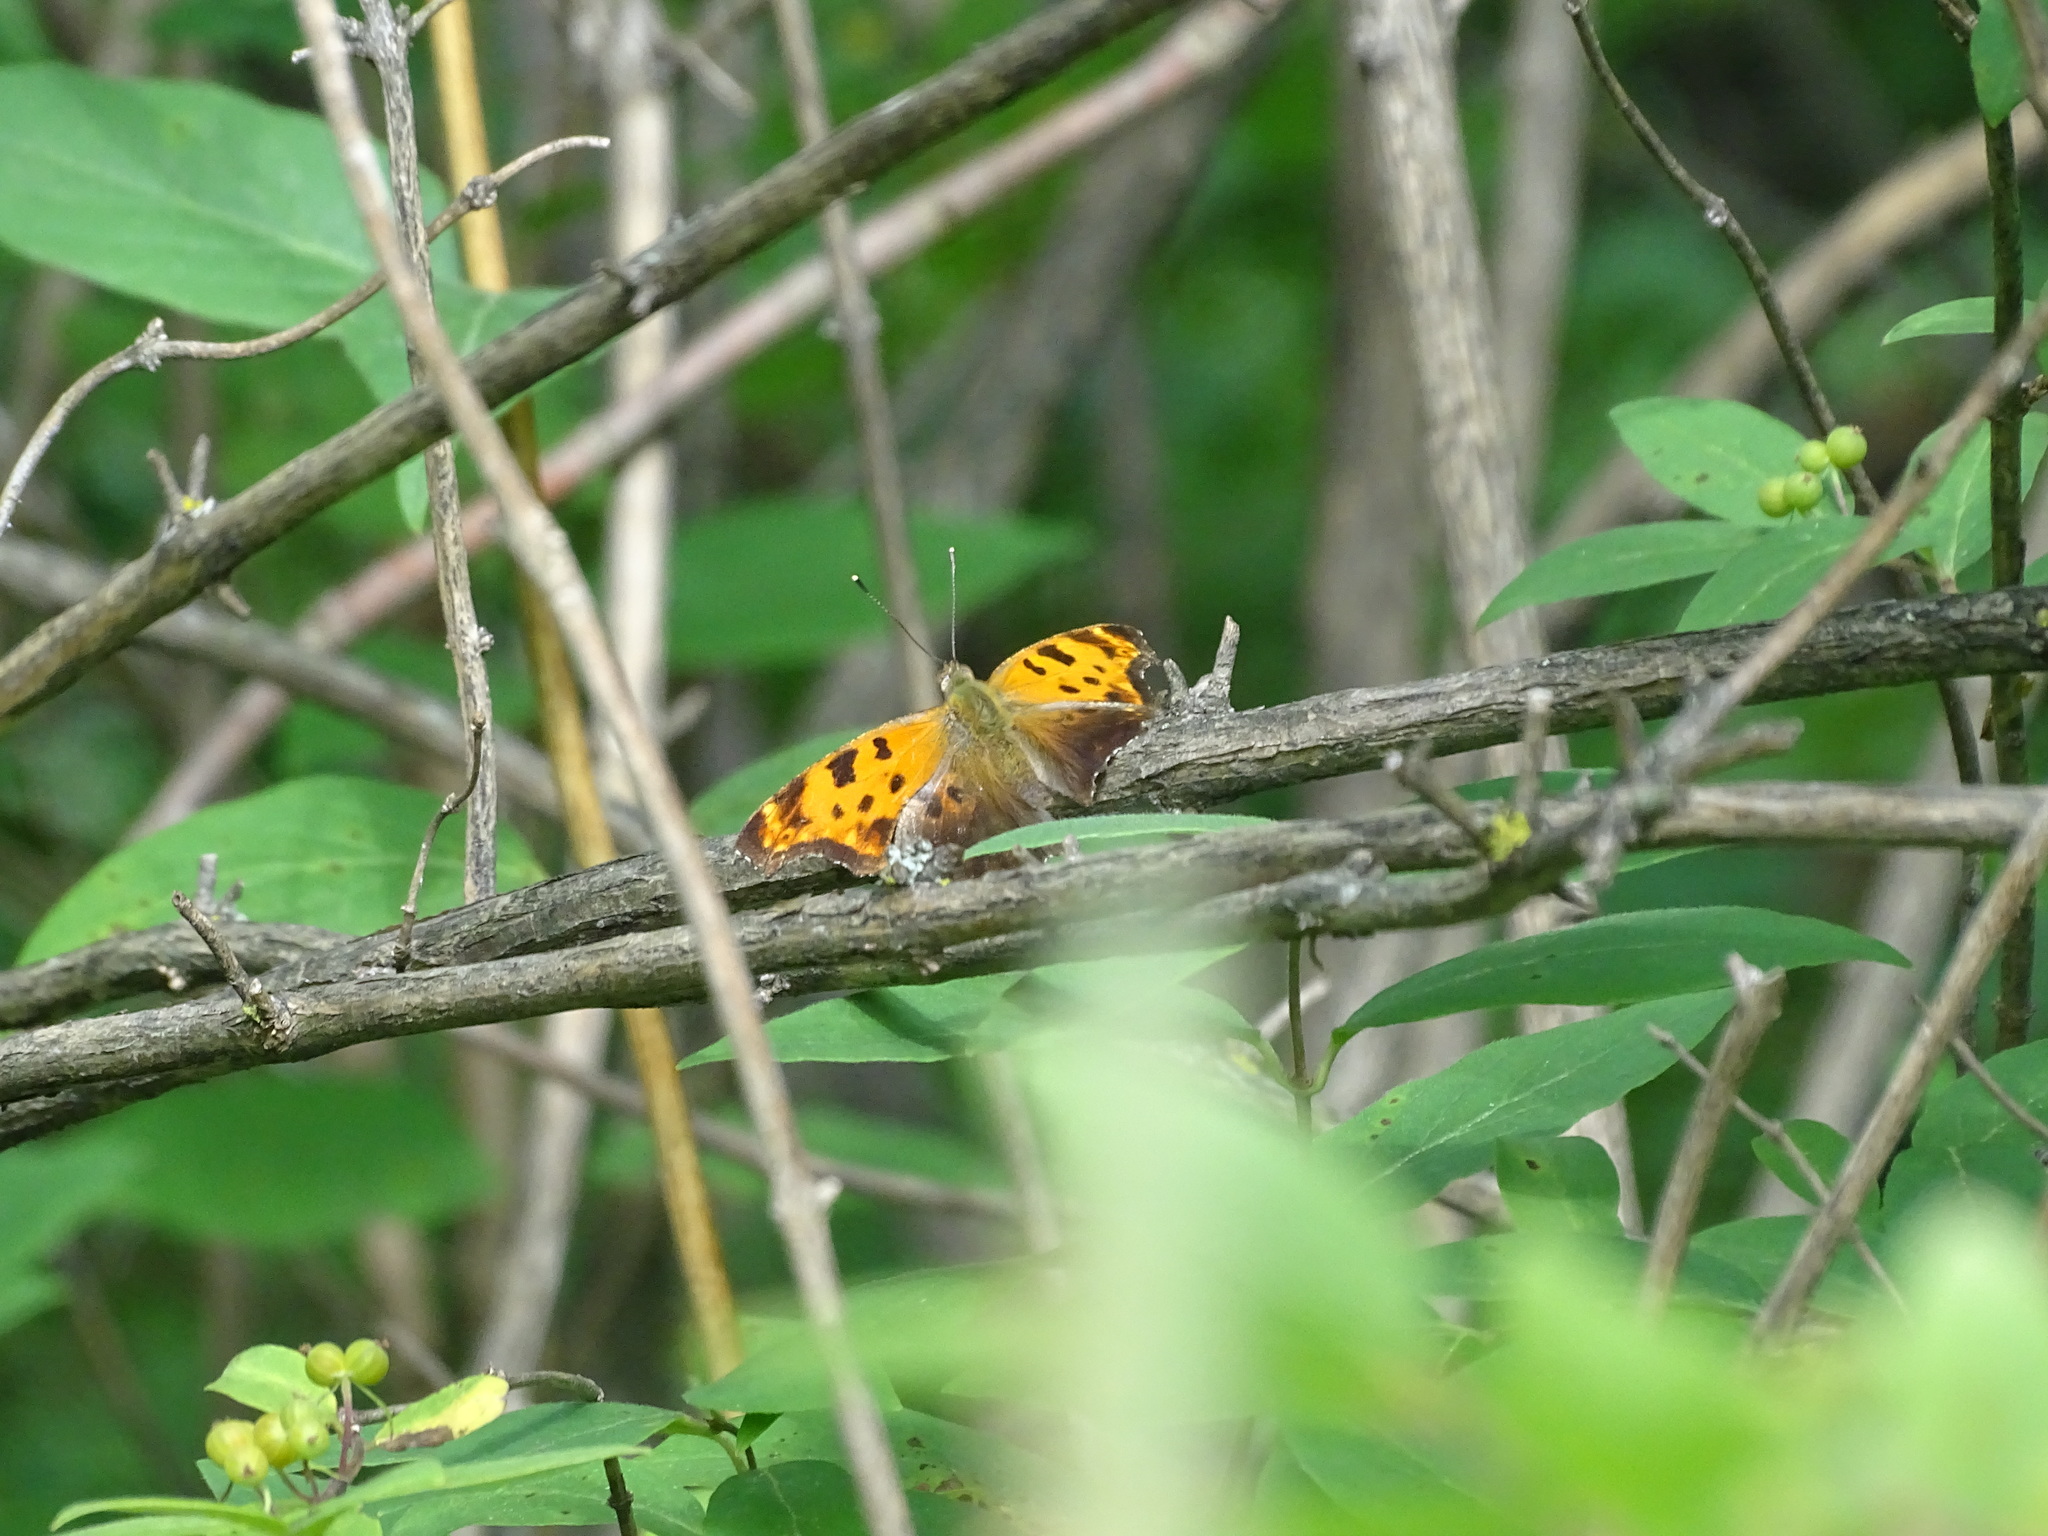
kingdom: Animalia
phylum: Arthropoda
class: Insecta
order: Lepidoptera
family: Nymphalidae
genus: Polygonia
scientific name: Polygonia comma
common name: Eastern comma
